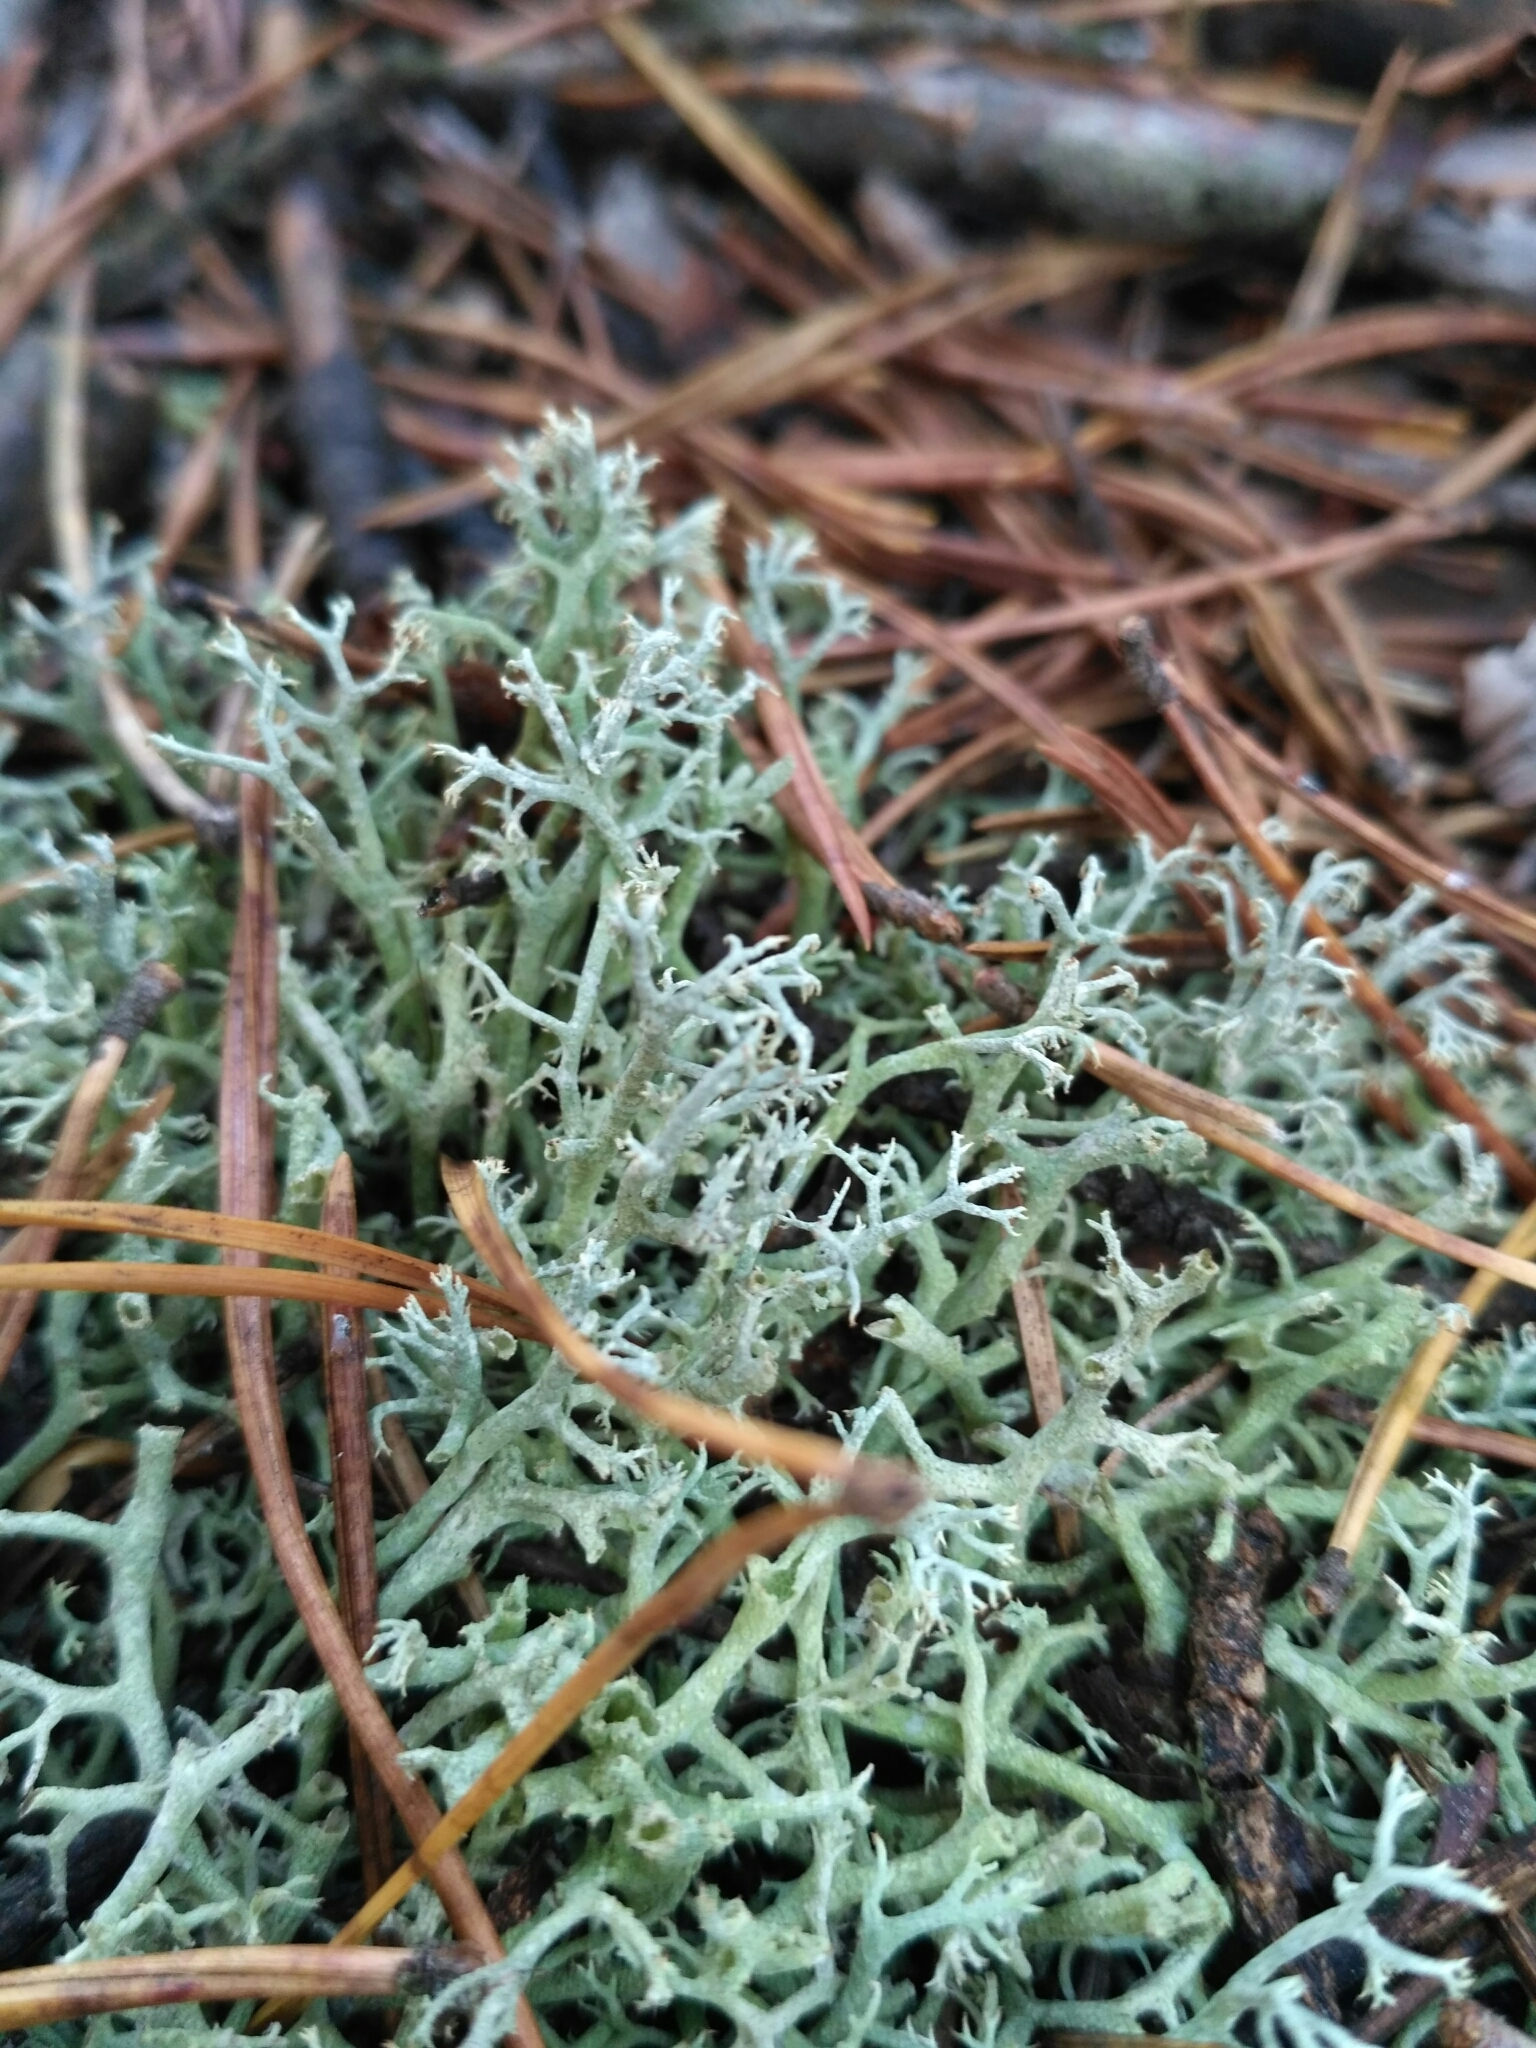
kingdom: Fungi
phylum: Ascomycota
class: Lecanoromycetes
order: Lecanorales
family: Cladoniaceae
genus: Cladonia
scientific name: Cladonia uncialis
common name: Thorn lichen
